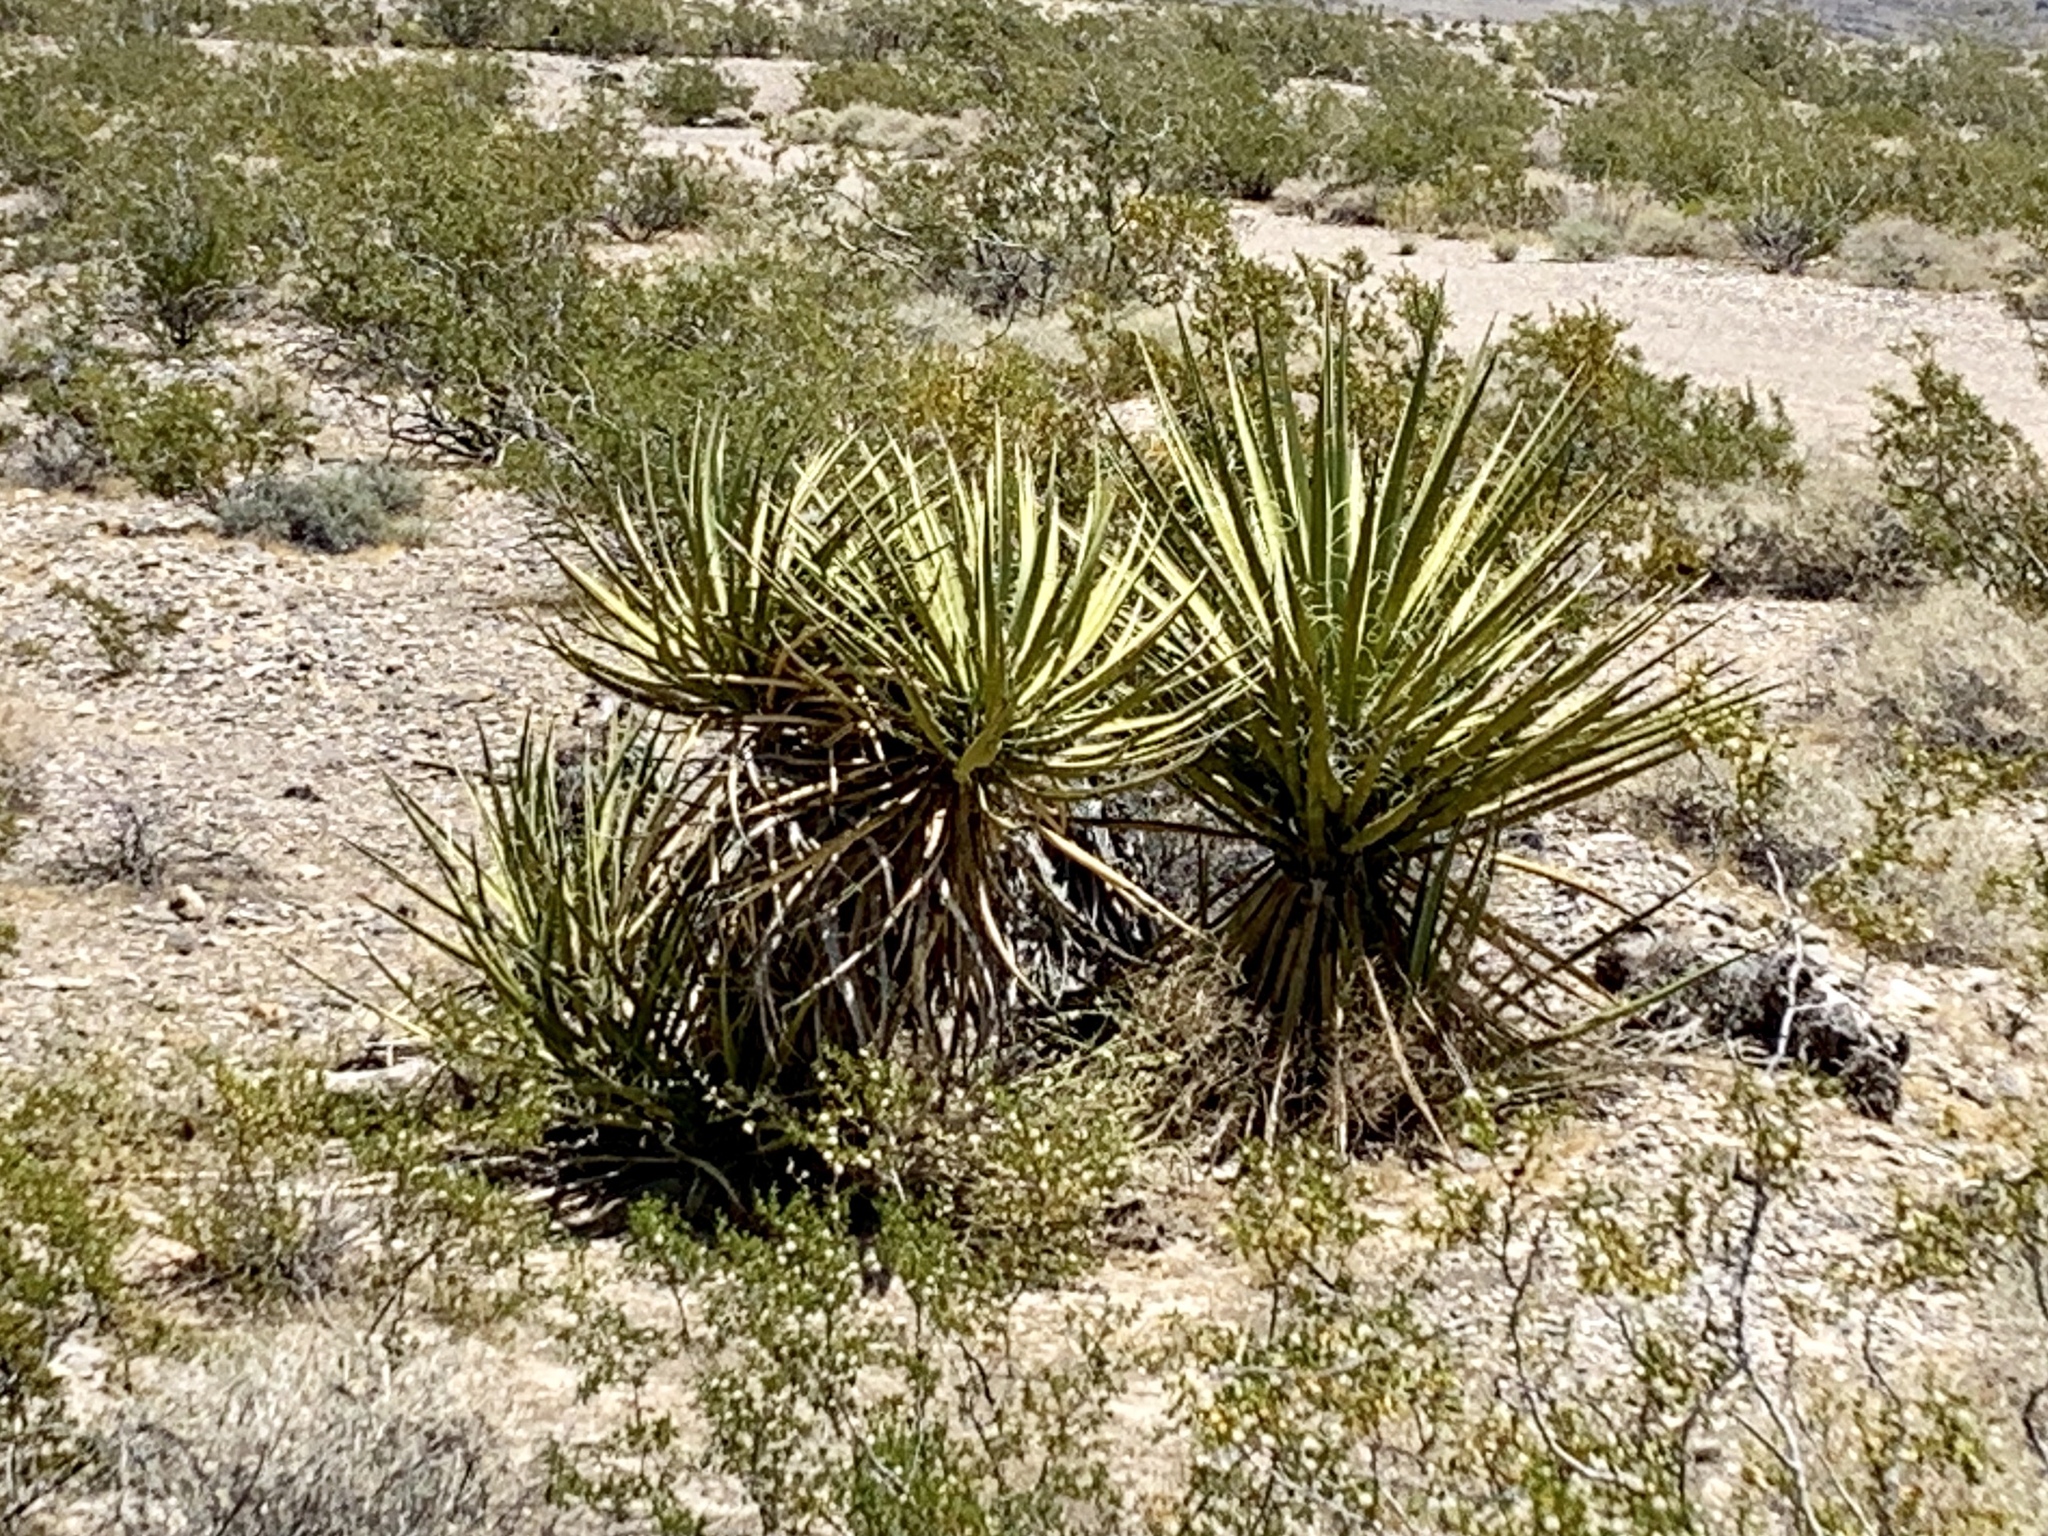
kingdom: Plantae
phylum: Tracheophyta
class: Liliopsida
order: Asparagales
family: Asparagaceae
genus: Yucca
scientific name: Yucca schidigera
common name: Mojave yucca
